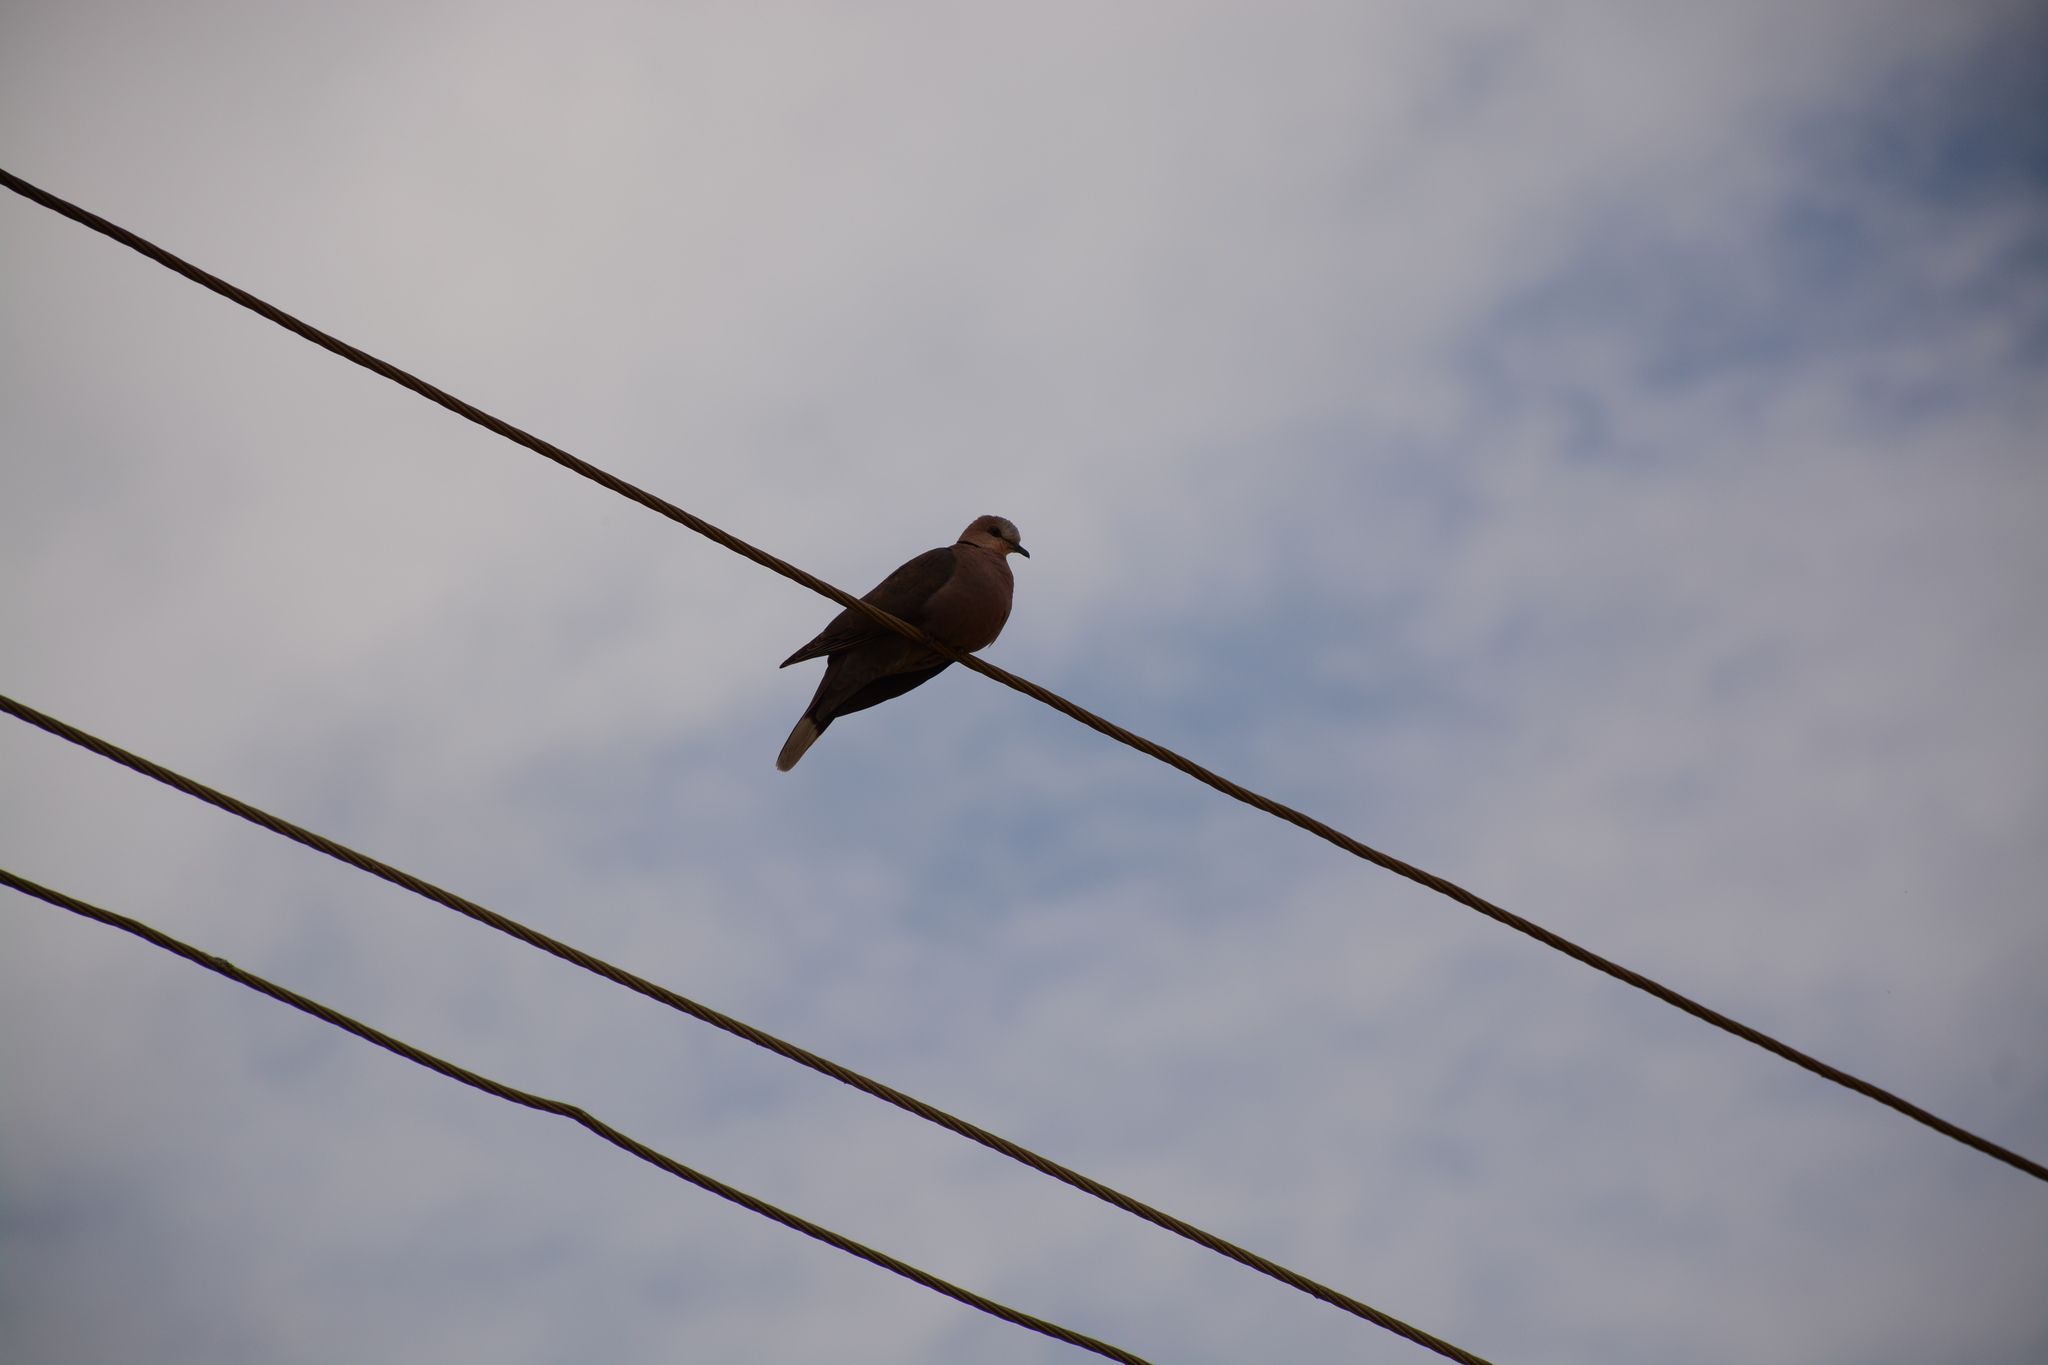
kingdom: Animalia
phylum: Chordata
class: Aves
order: Columbiformes
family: Columbidae
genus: Streptopelia
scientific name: Streptopelia semitorquata
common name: Red-eyed dove
